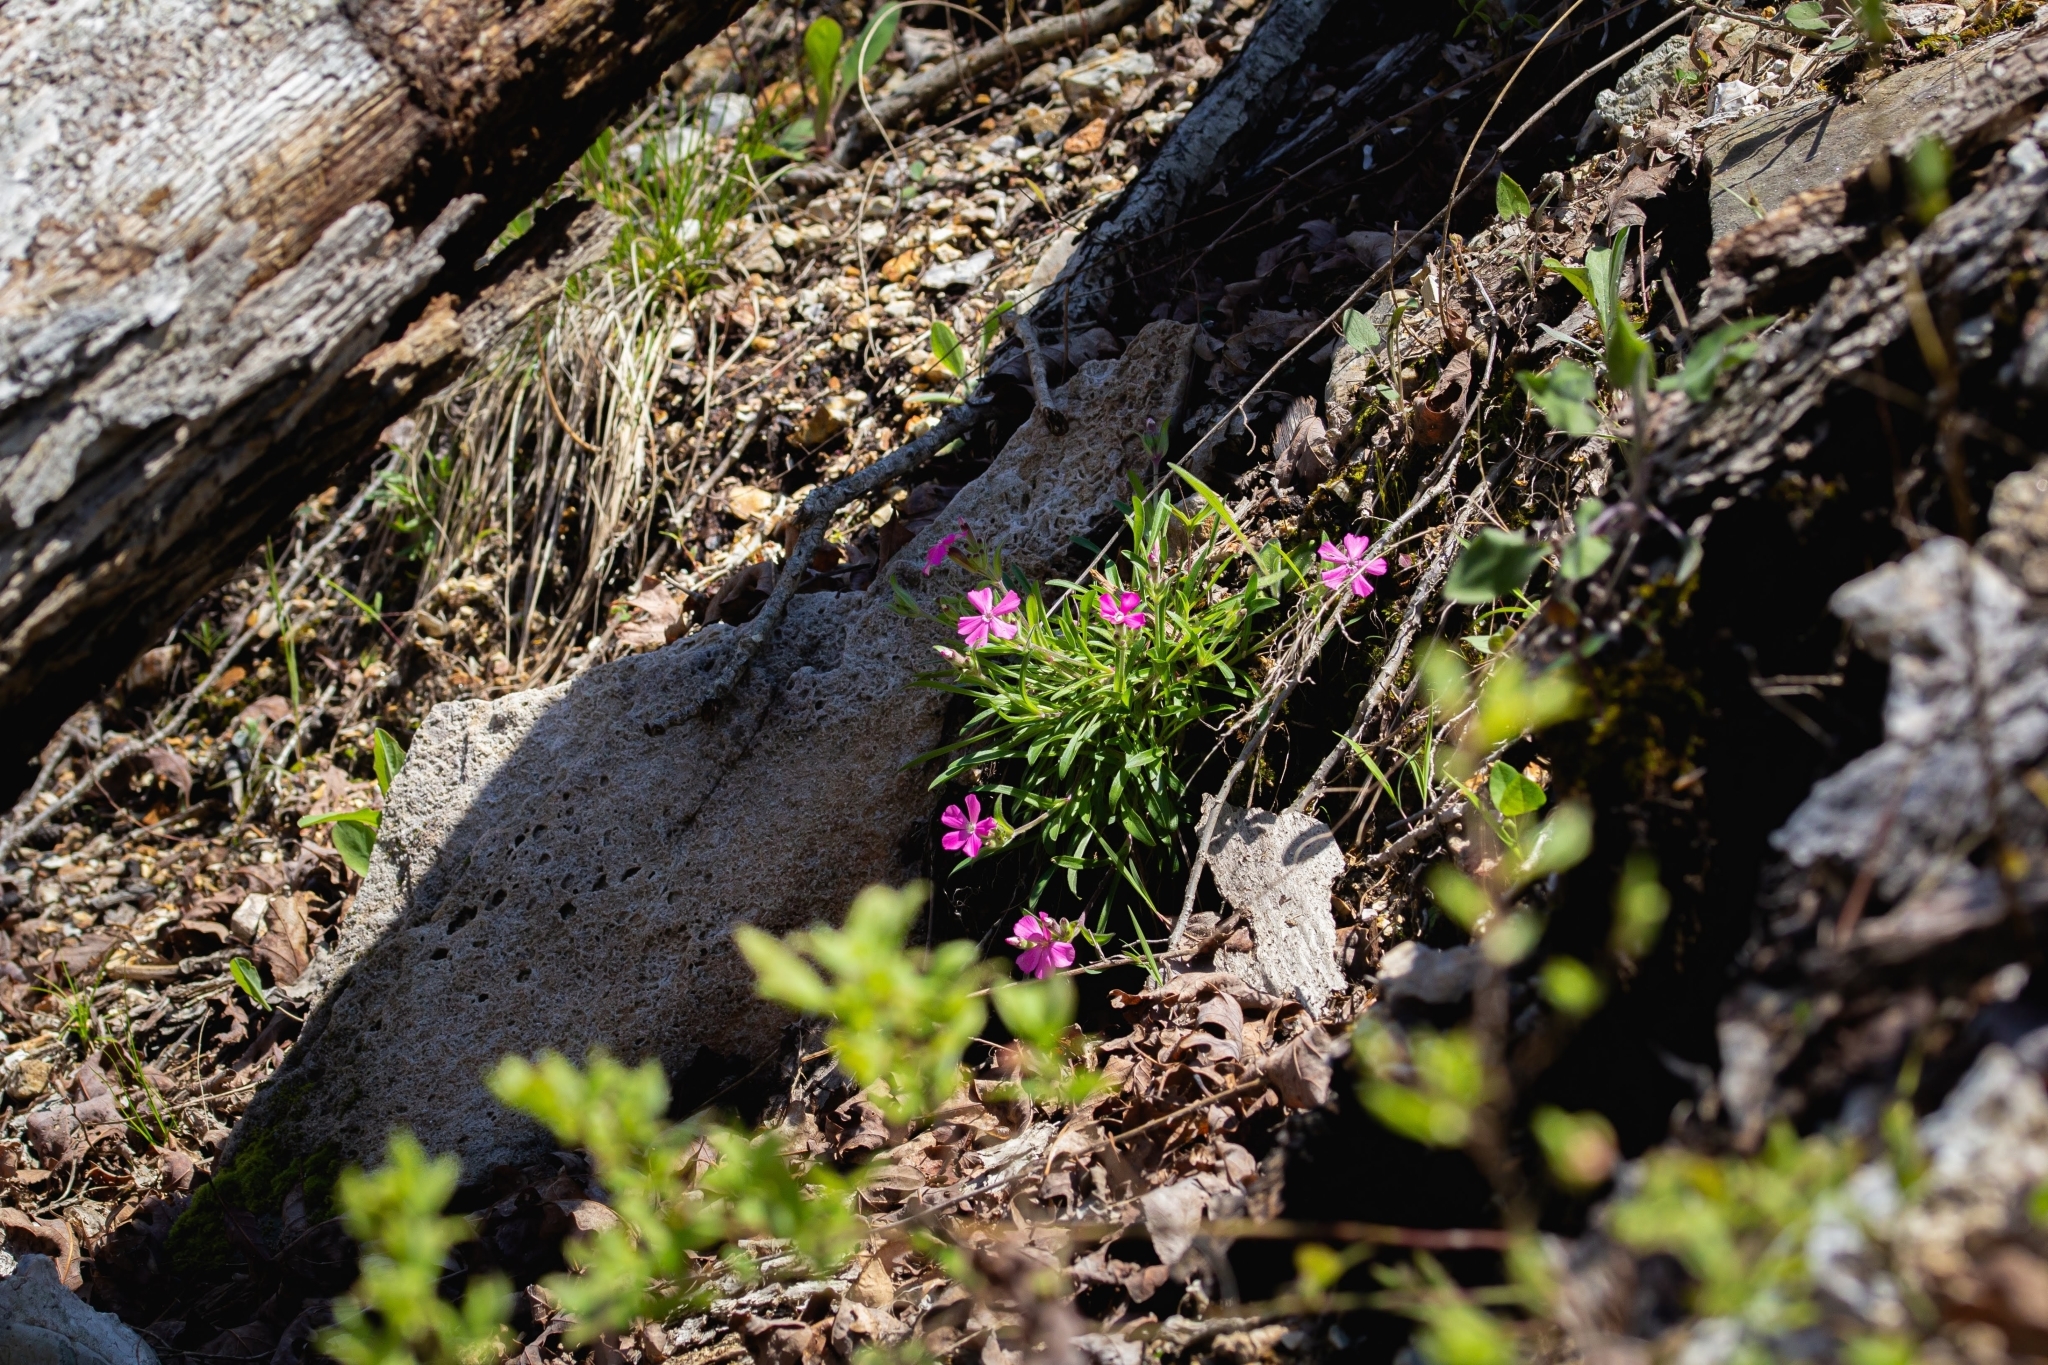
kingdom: Plantae
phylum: Tracheophyta
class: Magnoliopsida
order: Caryophyllales
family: Caryophyllaceae
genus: Silene
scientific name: Silene caroliniana
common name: Sticky catchfly
